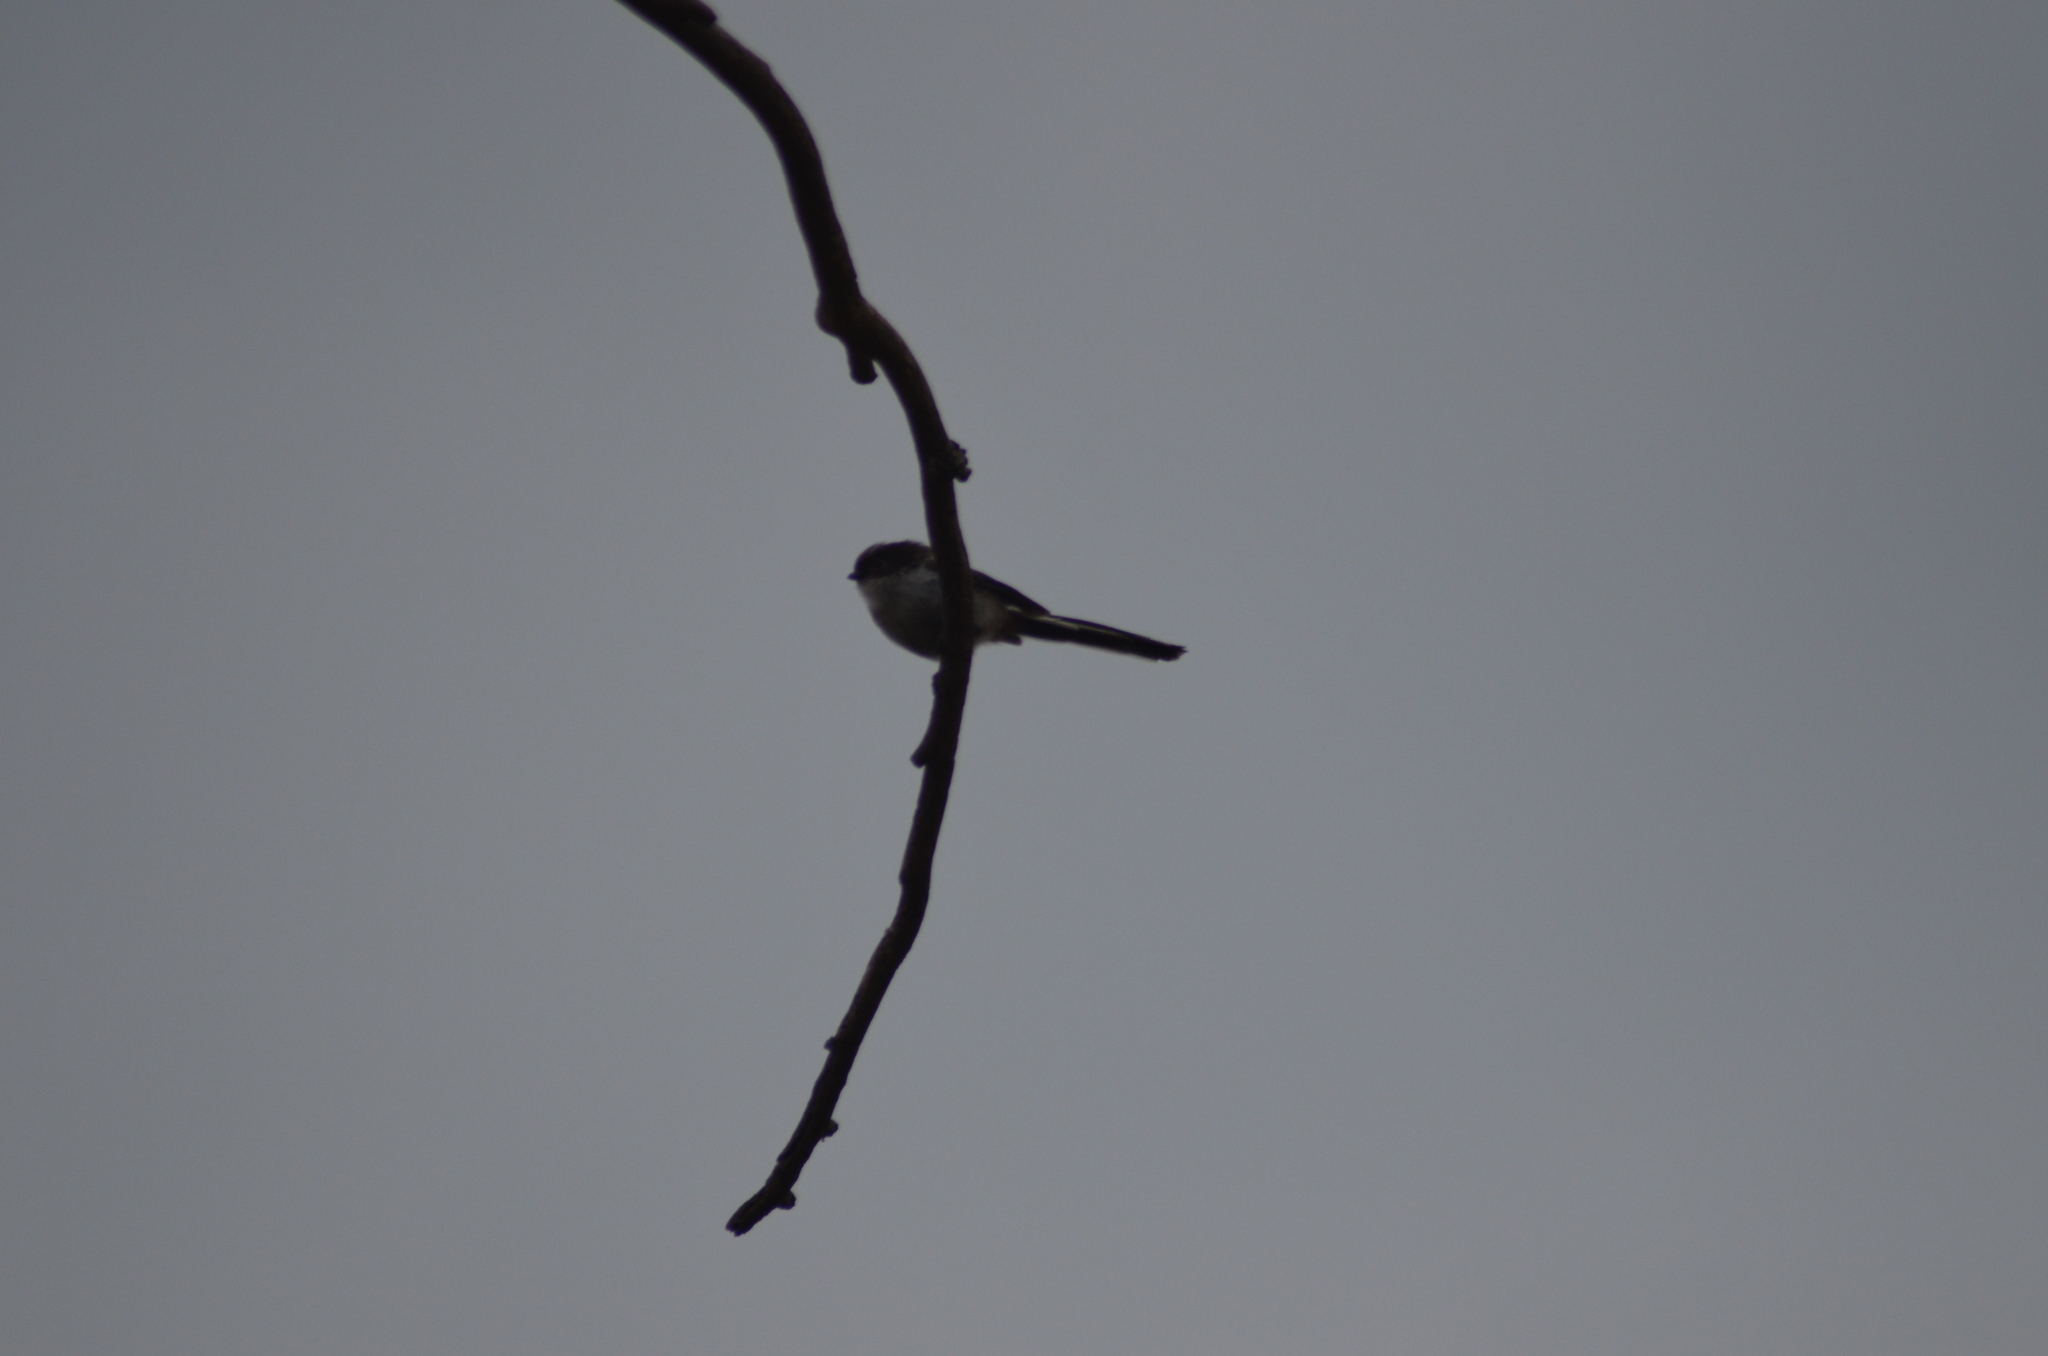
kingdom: Animalia
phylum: Chordata
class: Aves
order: Passeriformes
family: Aegithalidae
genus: Aegithalos
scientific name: Aegithalos caudatus
